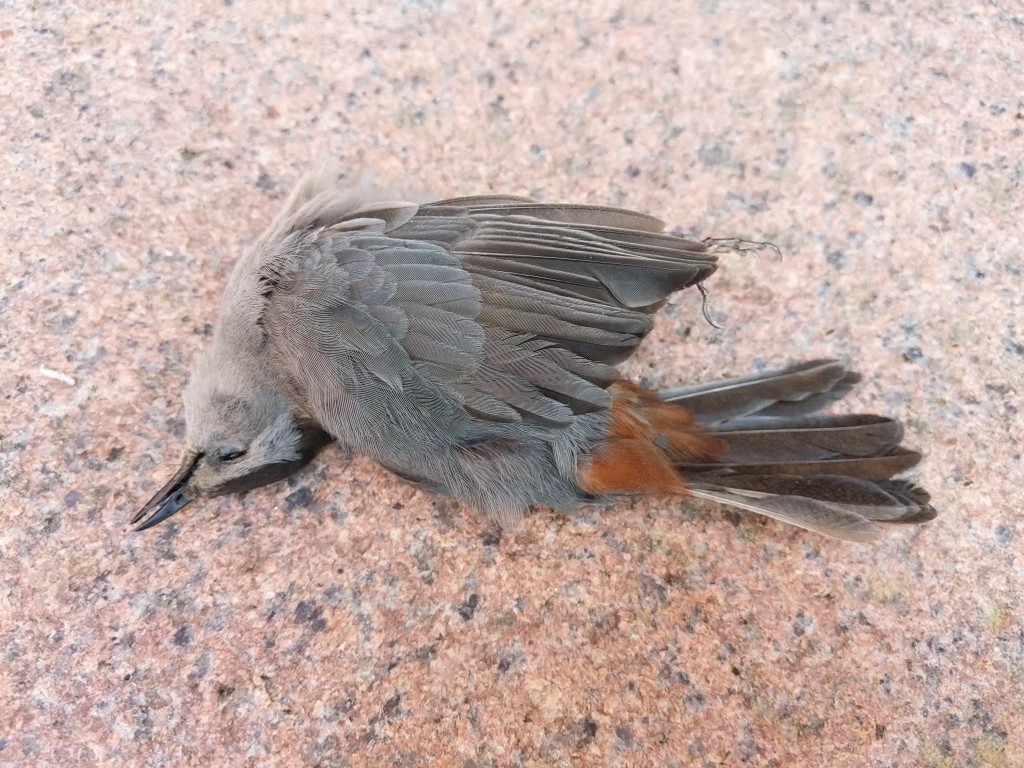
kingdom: Animalia
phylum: Chordata
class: Aves
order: Passeriformes
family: Mimidae
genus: Dumetella
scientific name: Dumetella carolinensis
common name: Gray catbird
